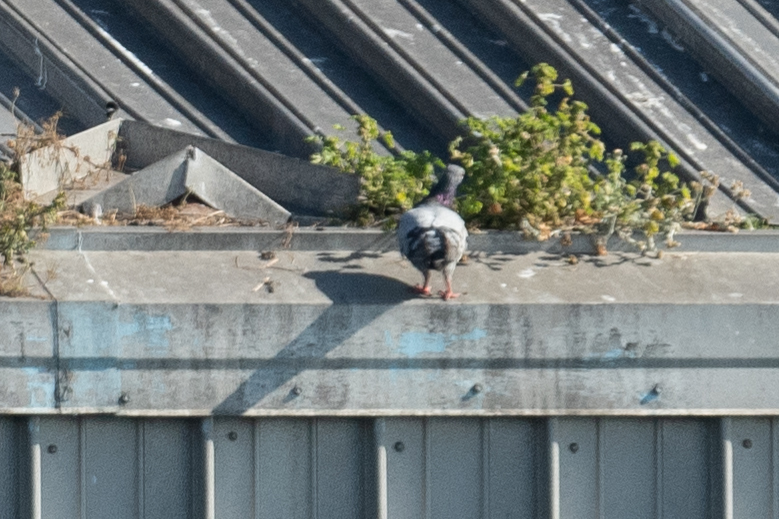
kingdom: Animalia
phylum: Chordata
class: Aves
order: Columbiformes
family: Columbidae
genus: Columba
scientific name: Columba livia
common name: Rock pigeon
